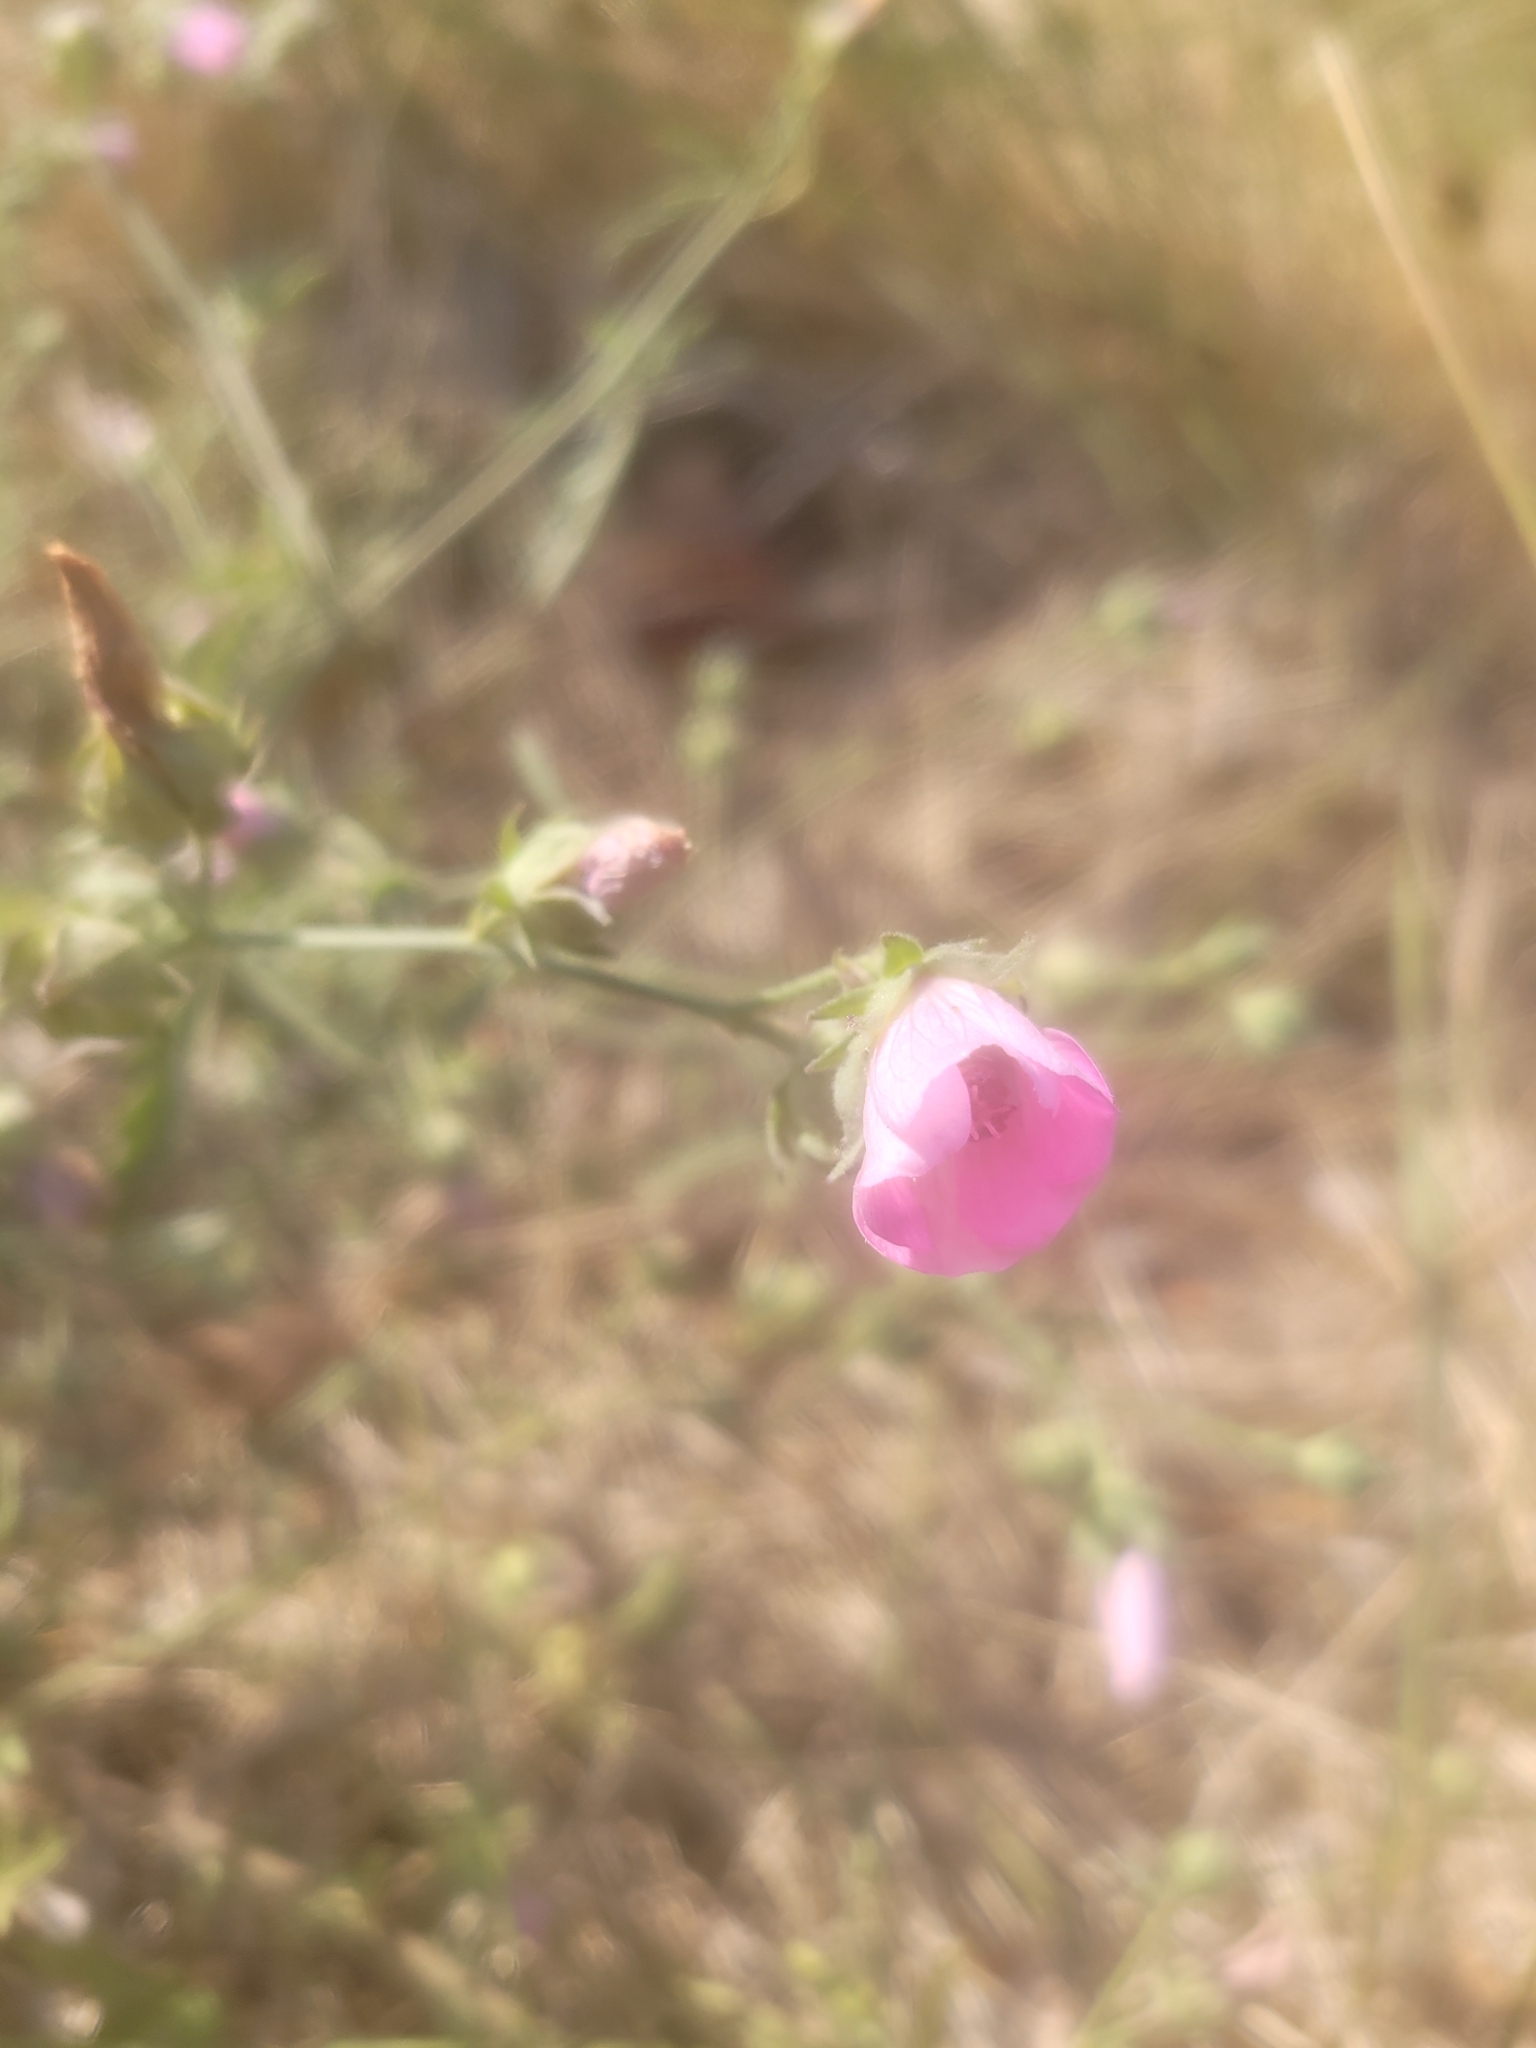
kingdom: Plantae
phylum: Tracheophyta
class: Magnoliopsida
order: Malvales
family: Malvaceae
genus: Althaea
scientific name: Althaea cannabina
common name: Palm-leaf marshmallow
